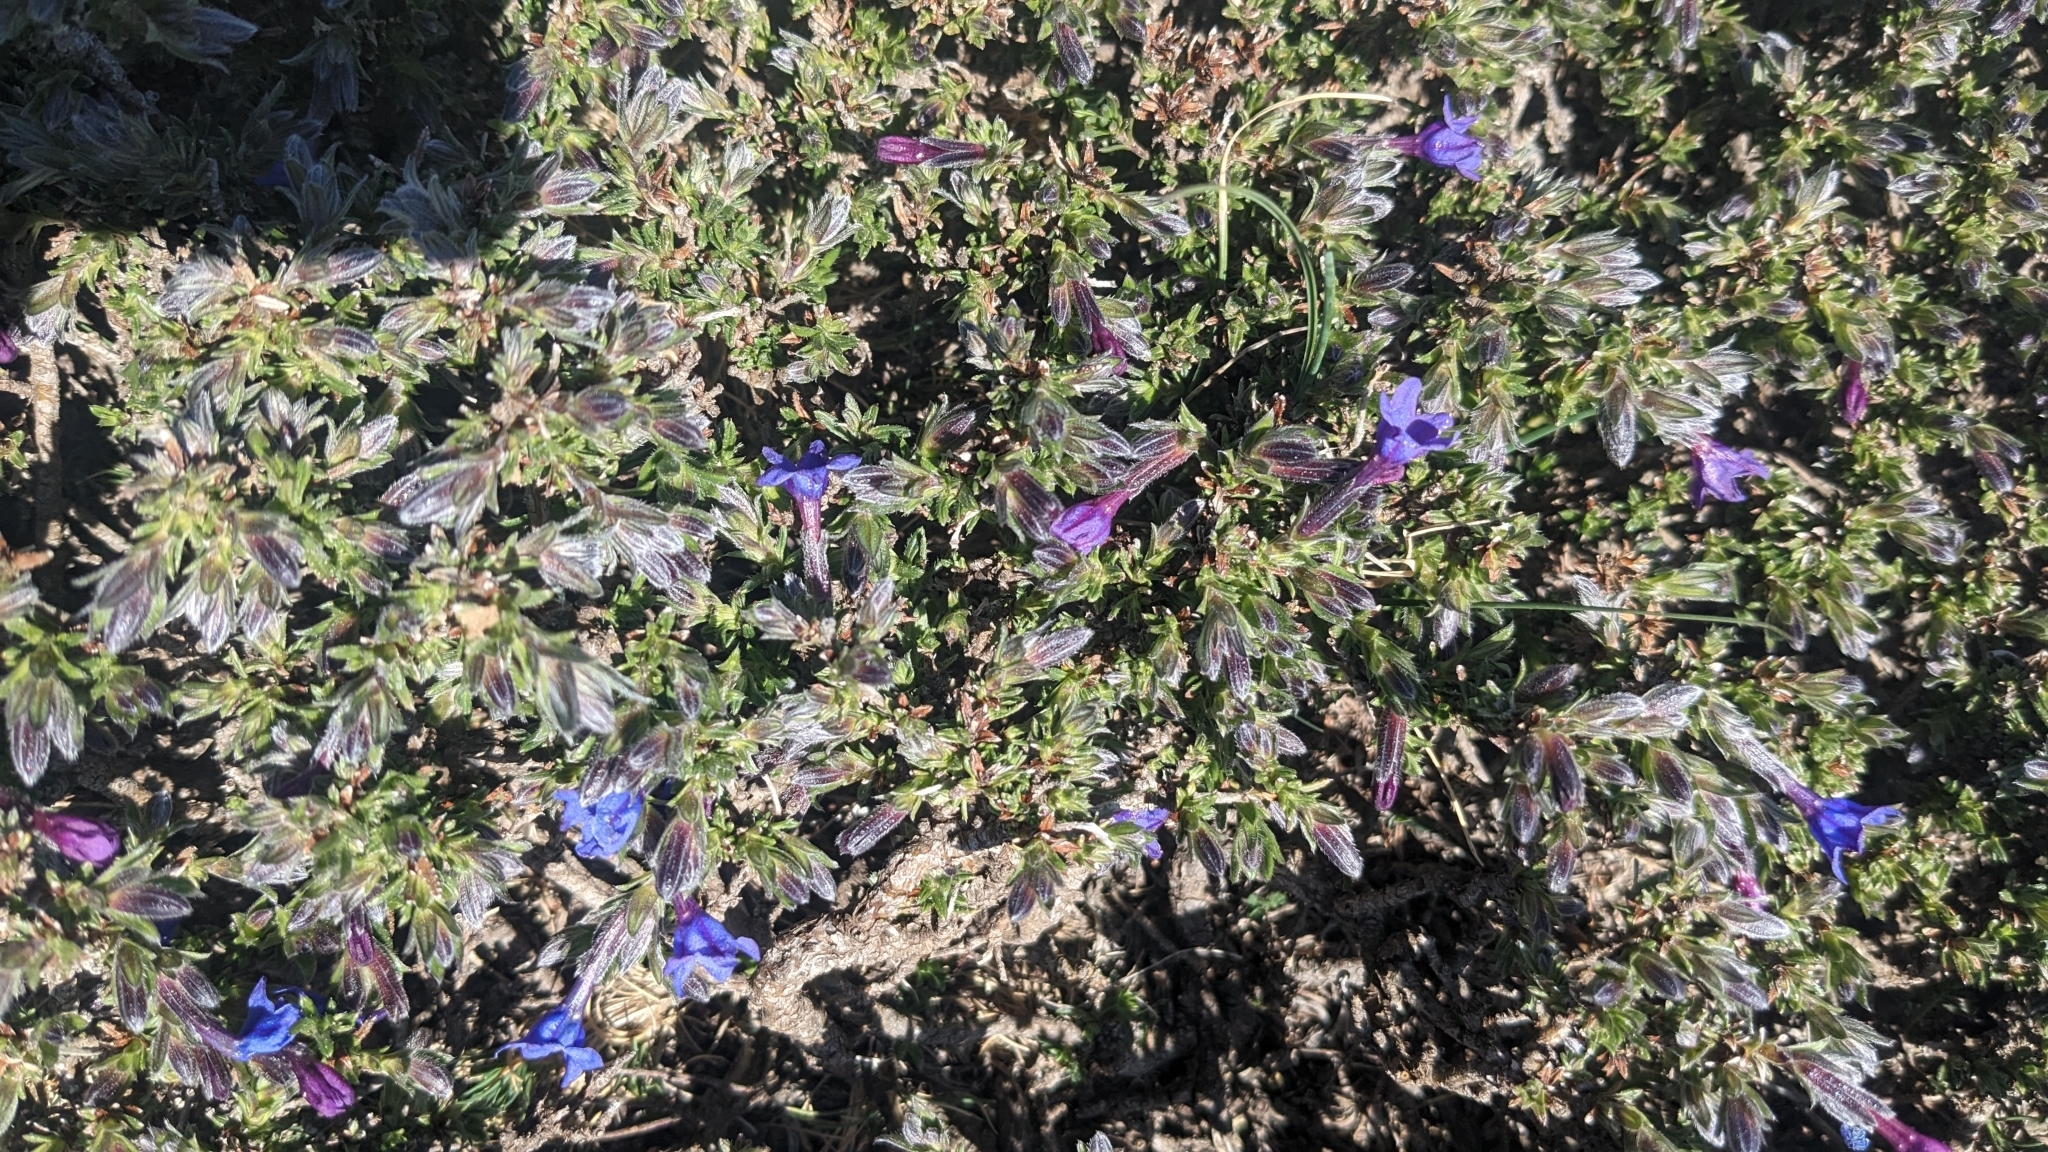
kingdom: Plantae
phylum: Tracheophyta
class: Magnoliopsida
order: Boraginales
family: Boraginaceae
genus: Lithodora
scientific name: Lithodora fruticosa
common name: Shrubby gromwell
